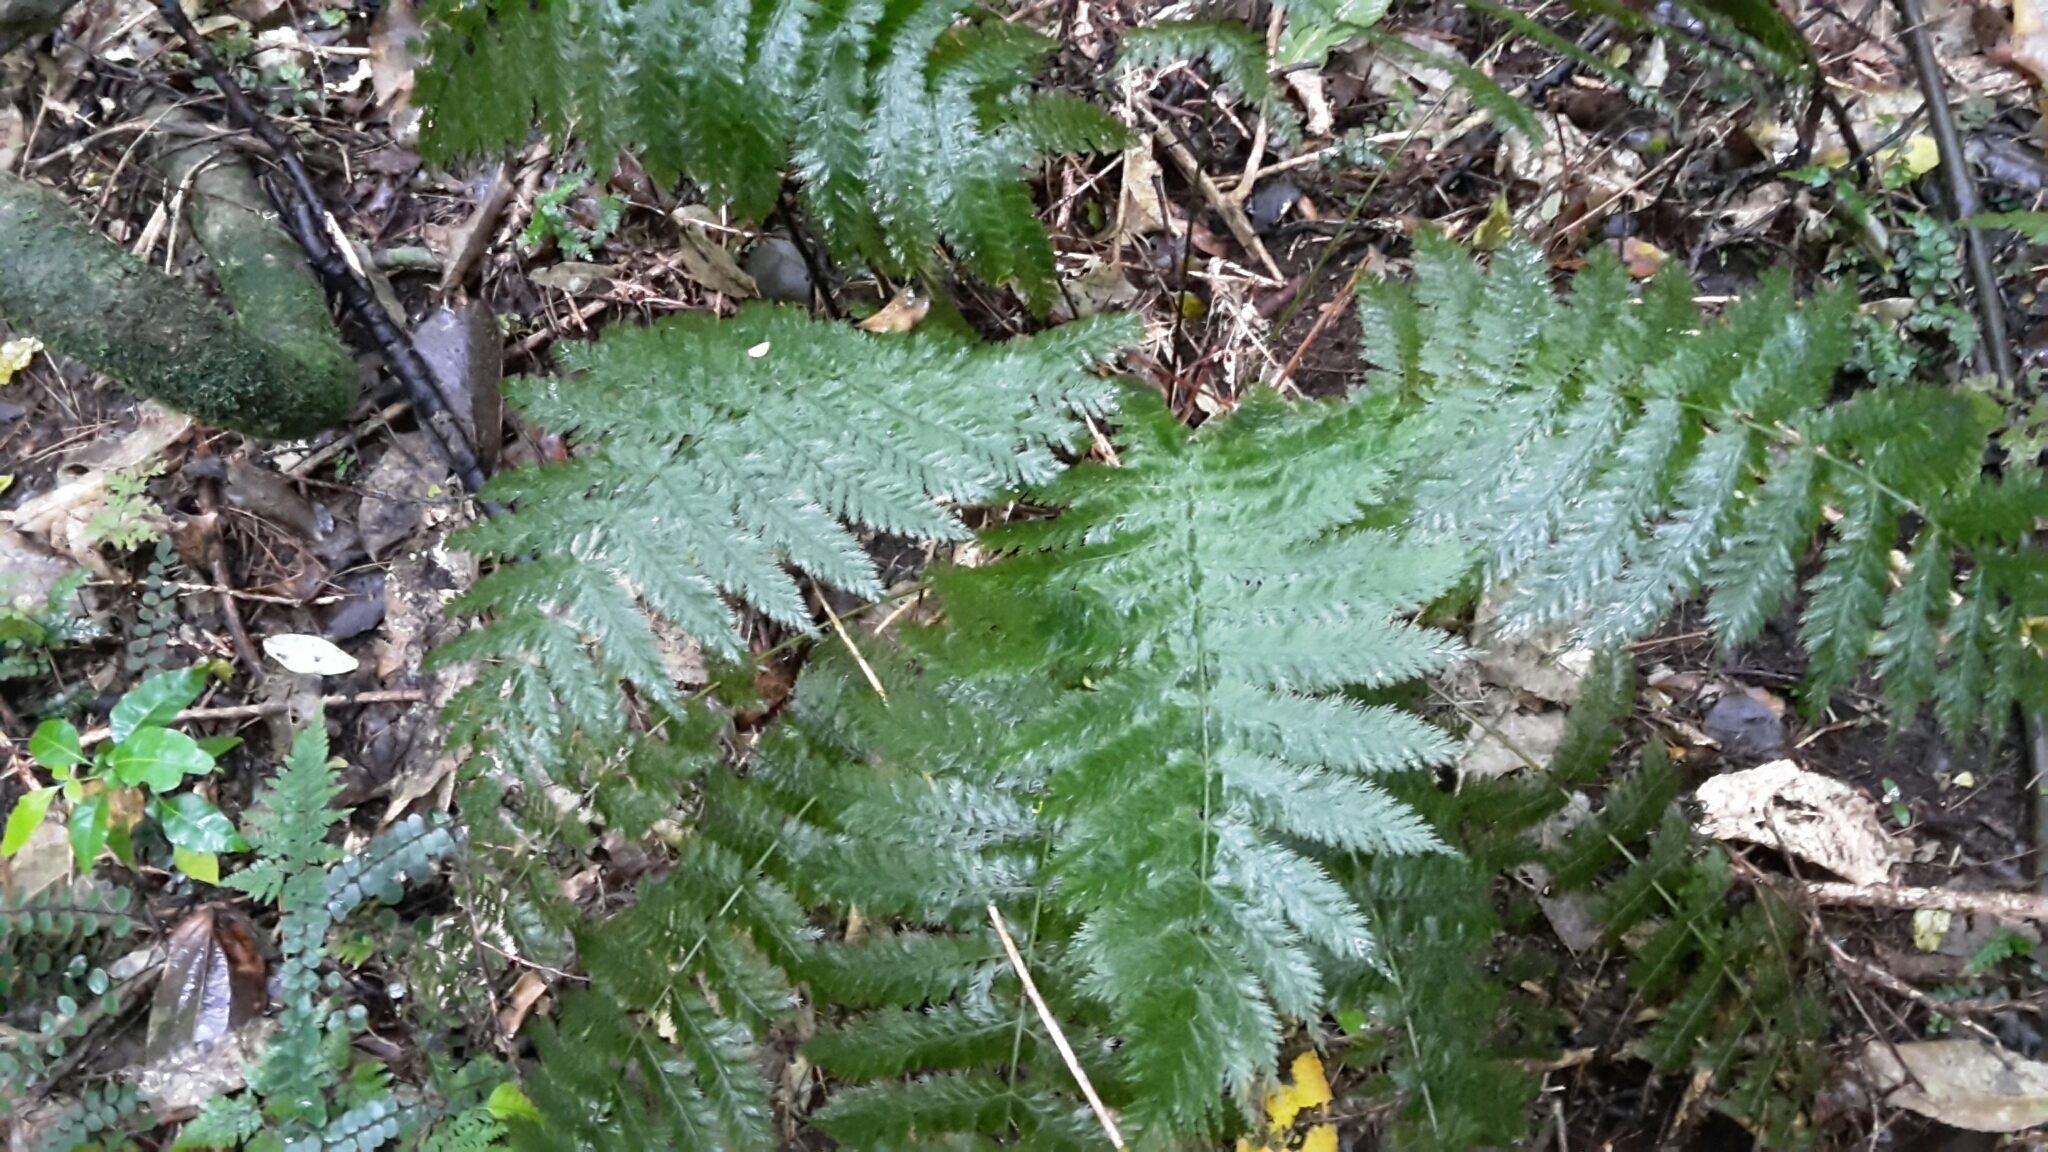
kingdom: Plantae
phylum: Tracheophyta
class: Polypodiopsida
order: Osmundales
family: Osmundaceae
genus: Leptopteris
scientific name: Leptopteris hymenophylloides
